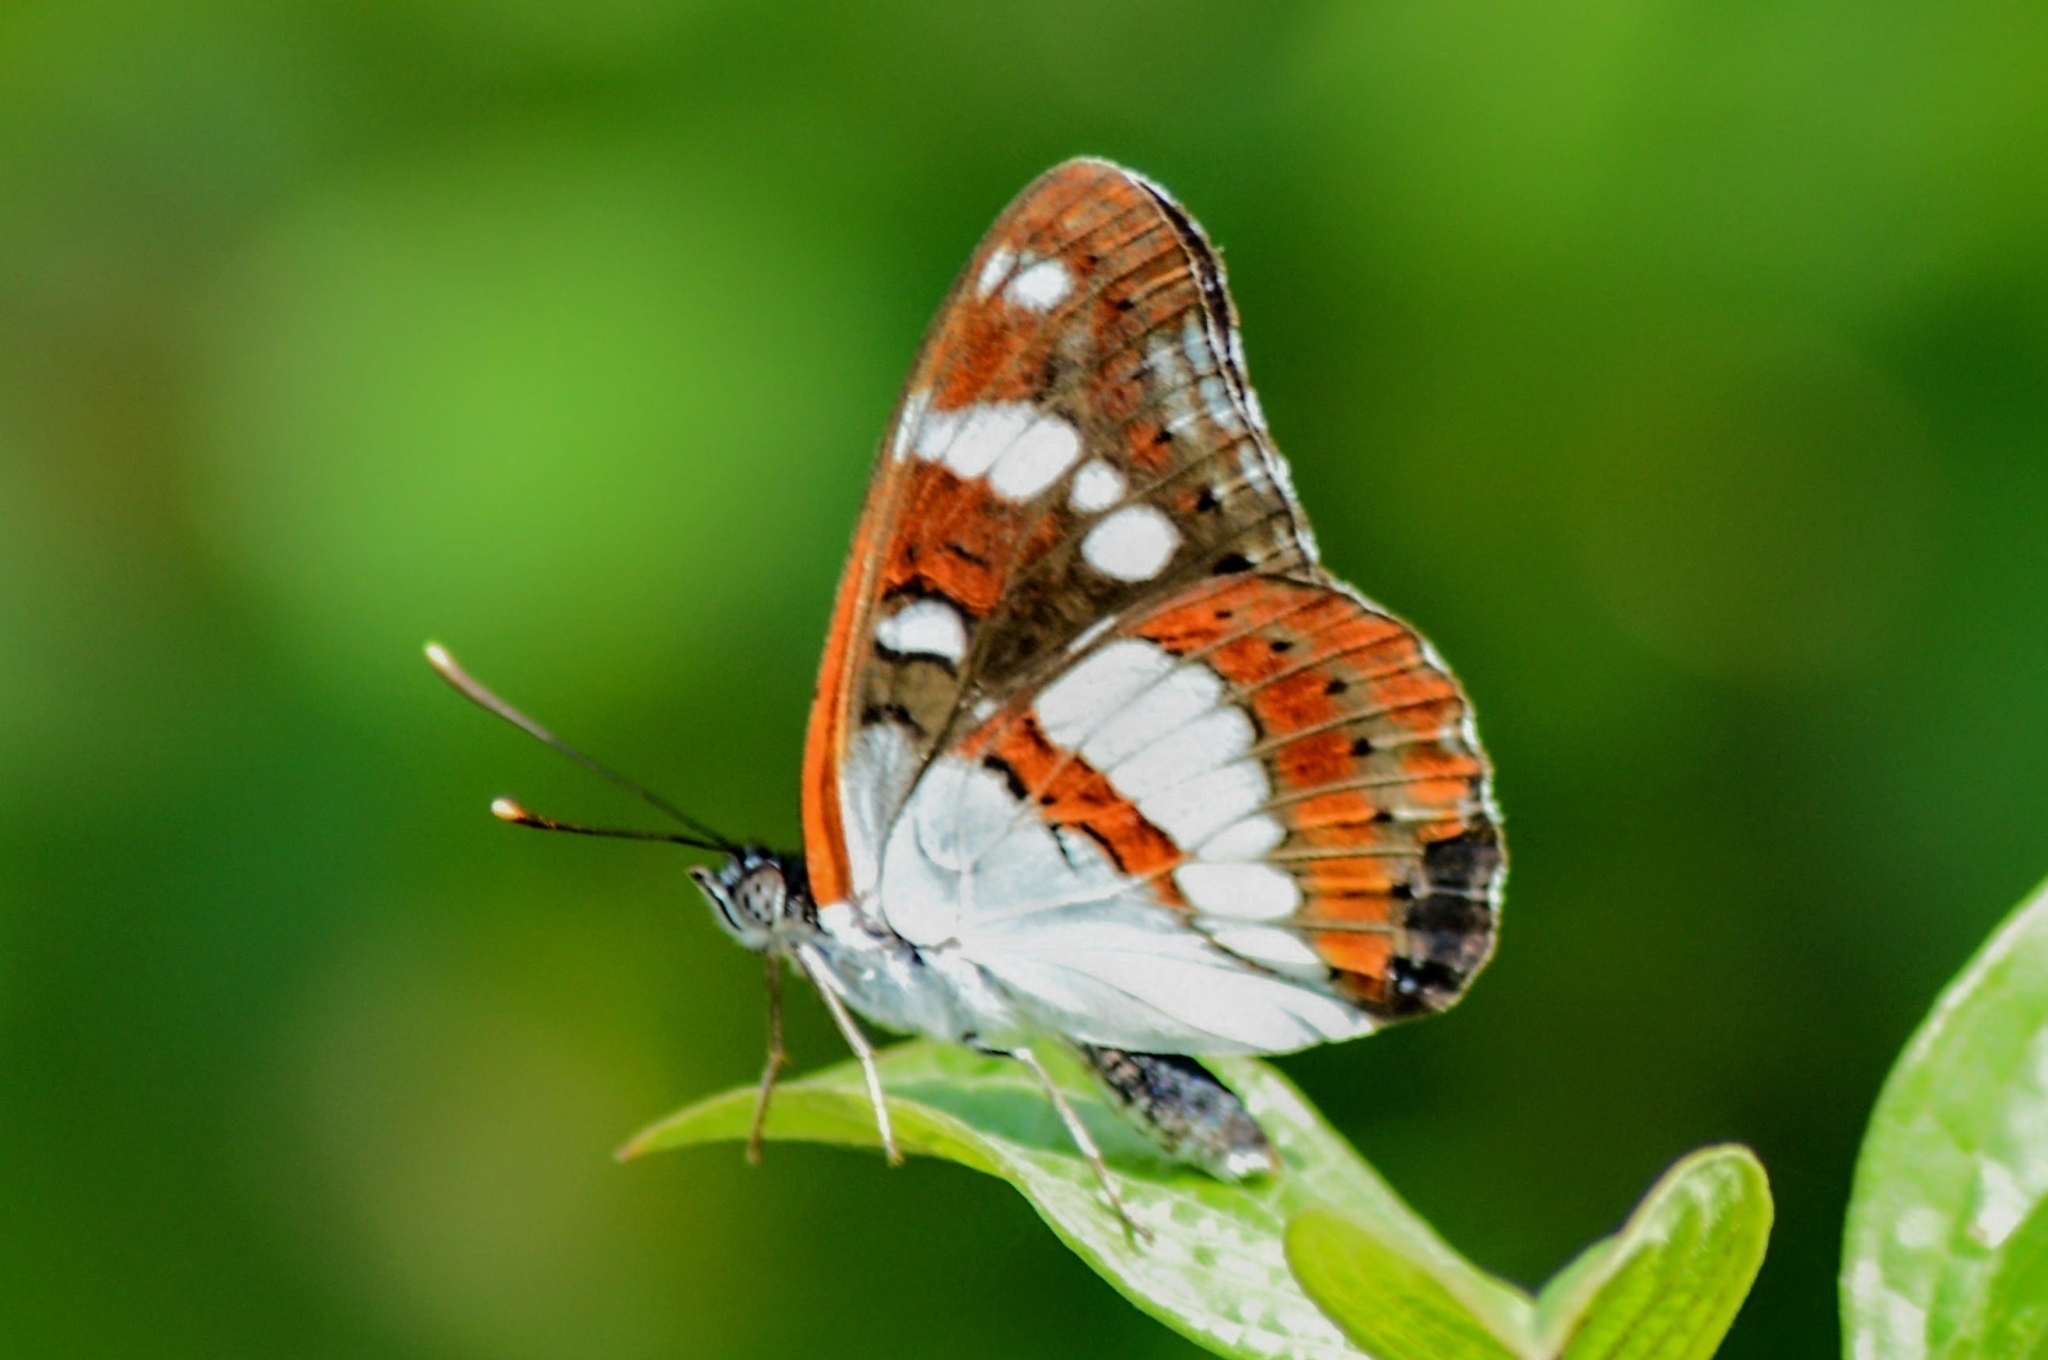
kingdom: Animalia
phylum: Arthropoda
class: Insecta
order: Lepidoptera
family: Nymphalidae
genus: Limenitis
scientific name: Limenitis reducta
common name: Southern white admiral
